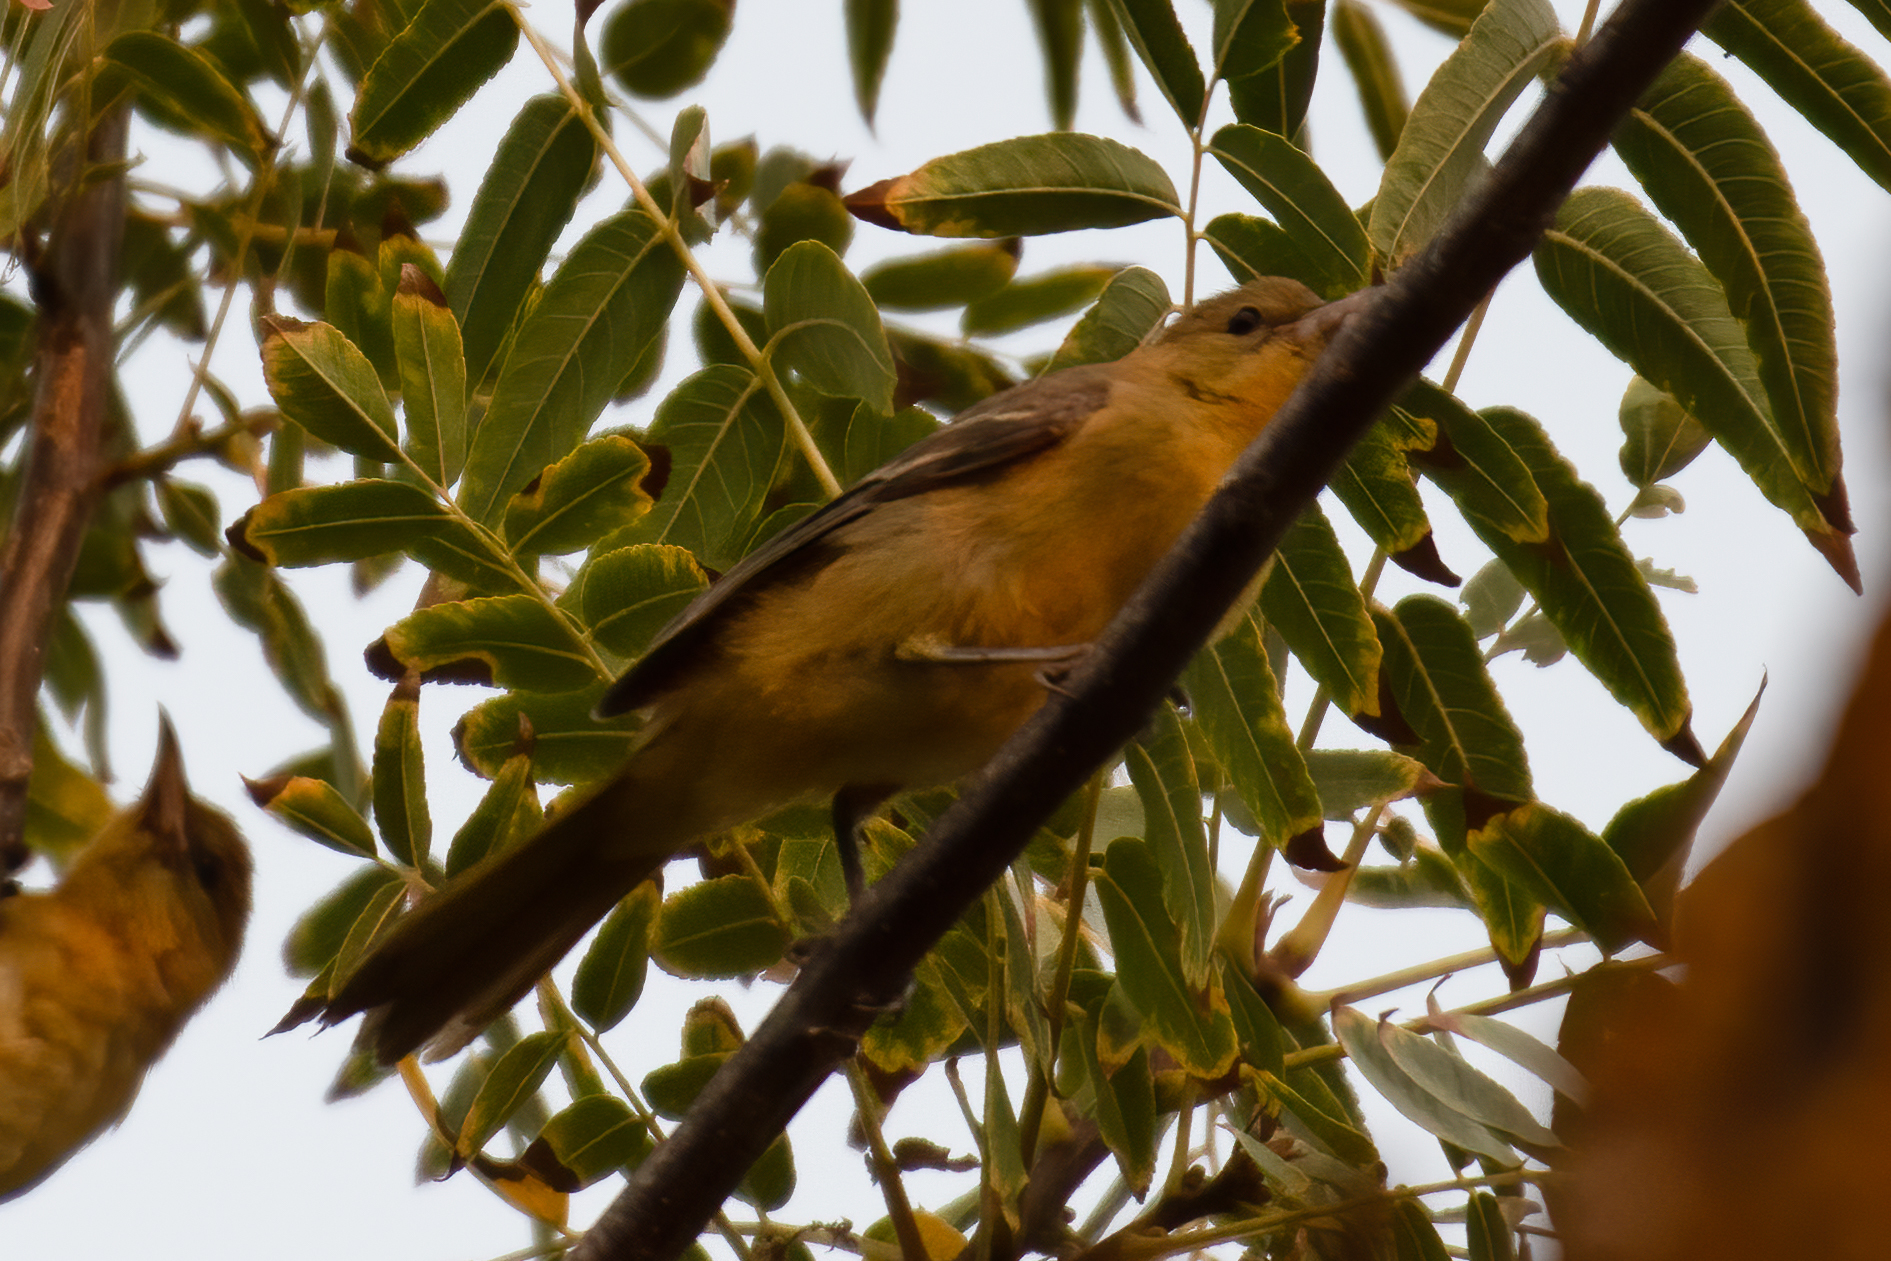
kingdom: Animalia
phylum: Chordata
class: Aves
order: Passeriformes
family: Icteridae
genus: Icterus
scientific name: Icterus cucullatus
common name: Hooded oriole
